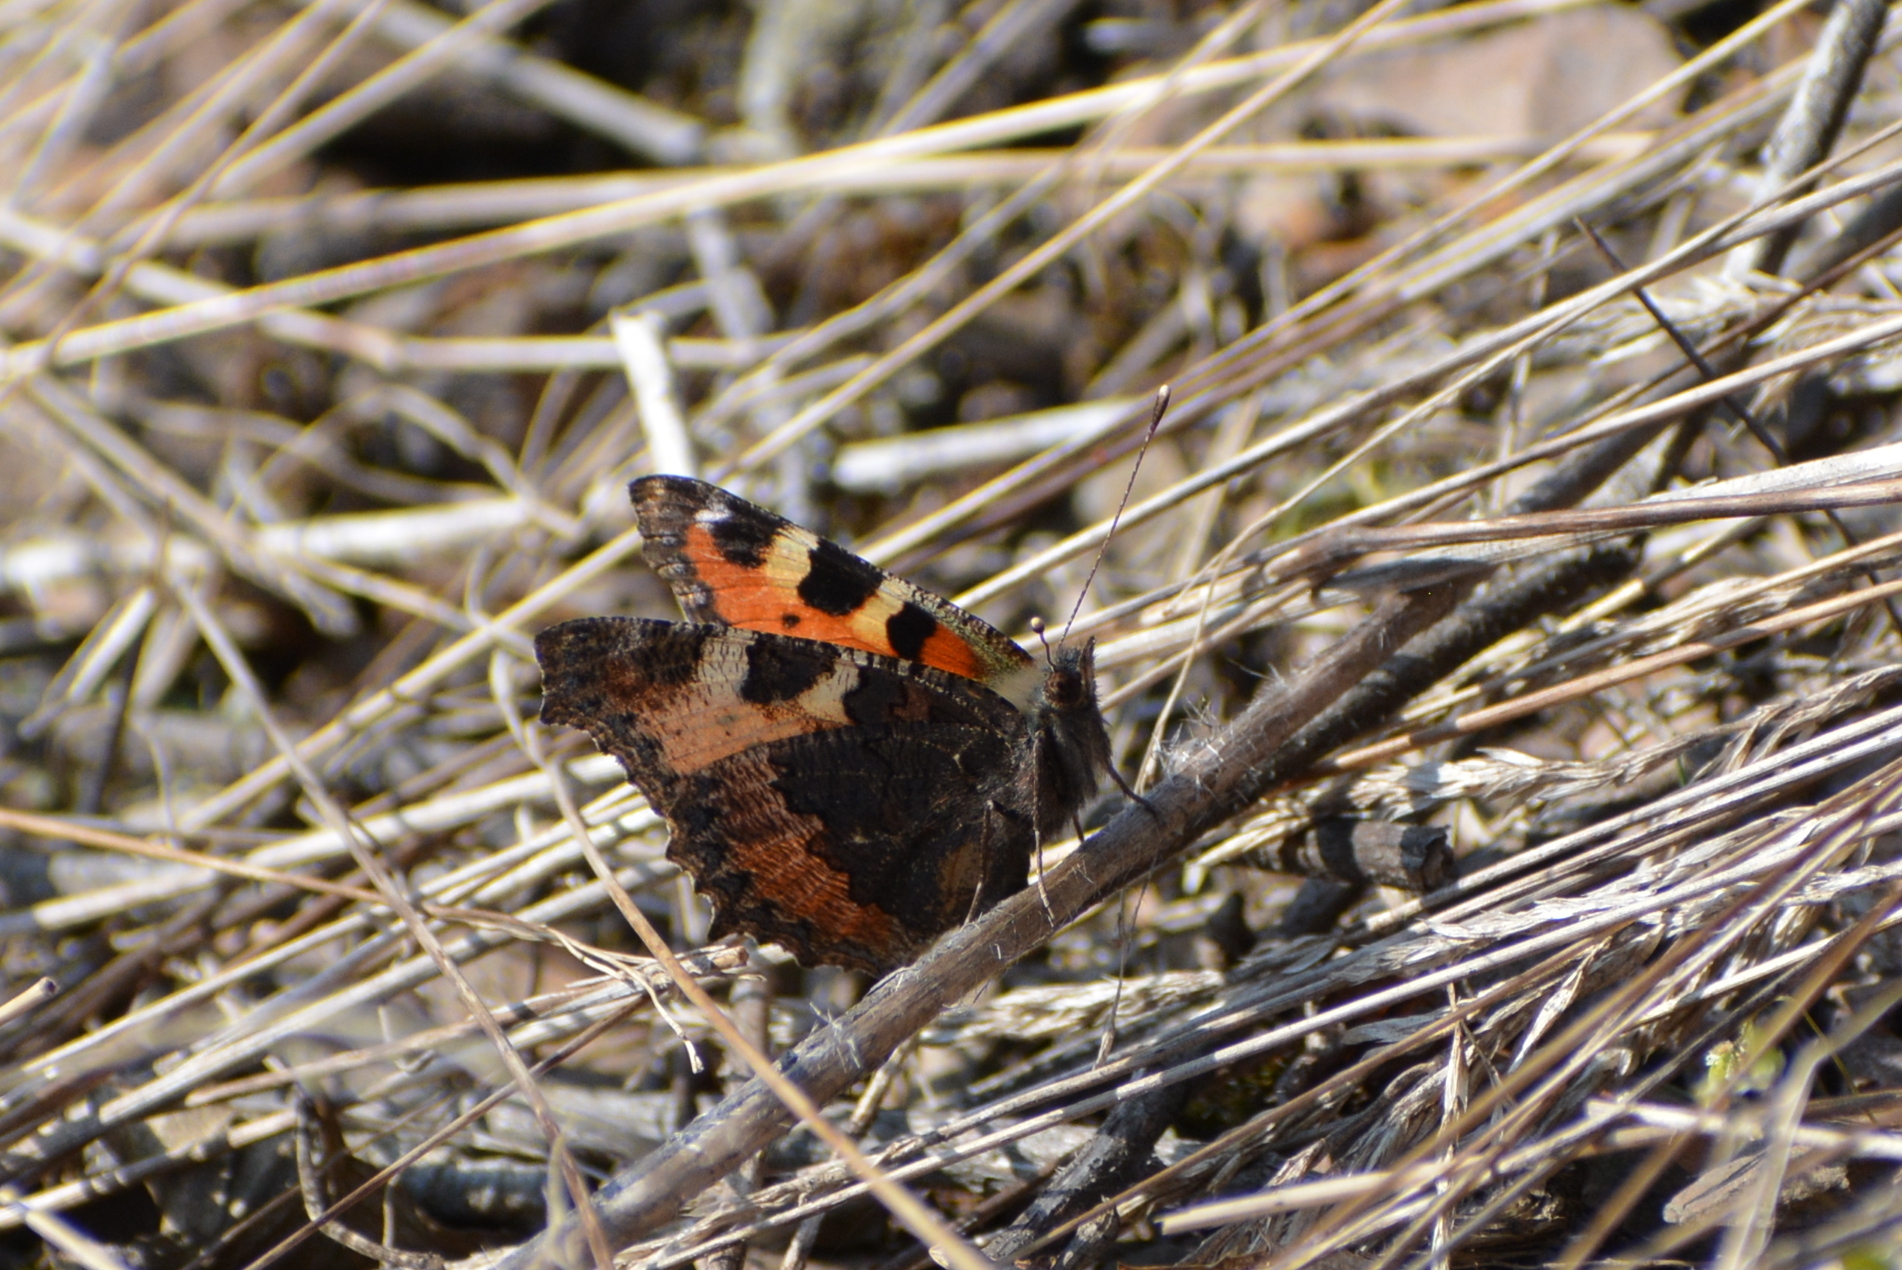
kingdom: Animalia
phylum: Arthropoda
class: Insecta
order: Lepidoptera
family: Nymphalidae
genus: Aglais
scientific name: Aglais urticae
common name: Small tortoiseshell
